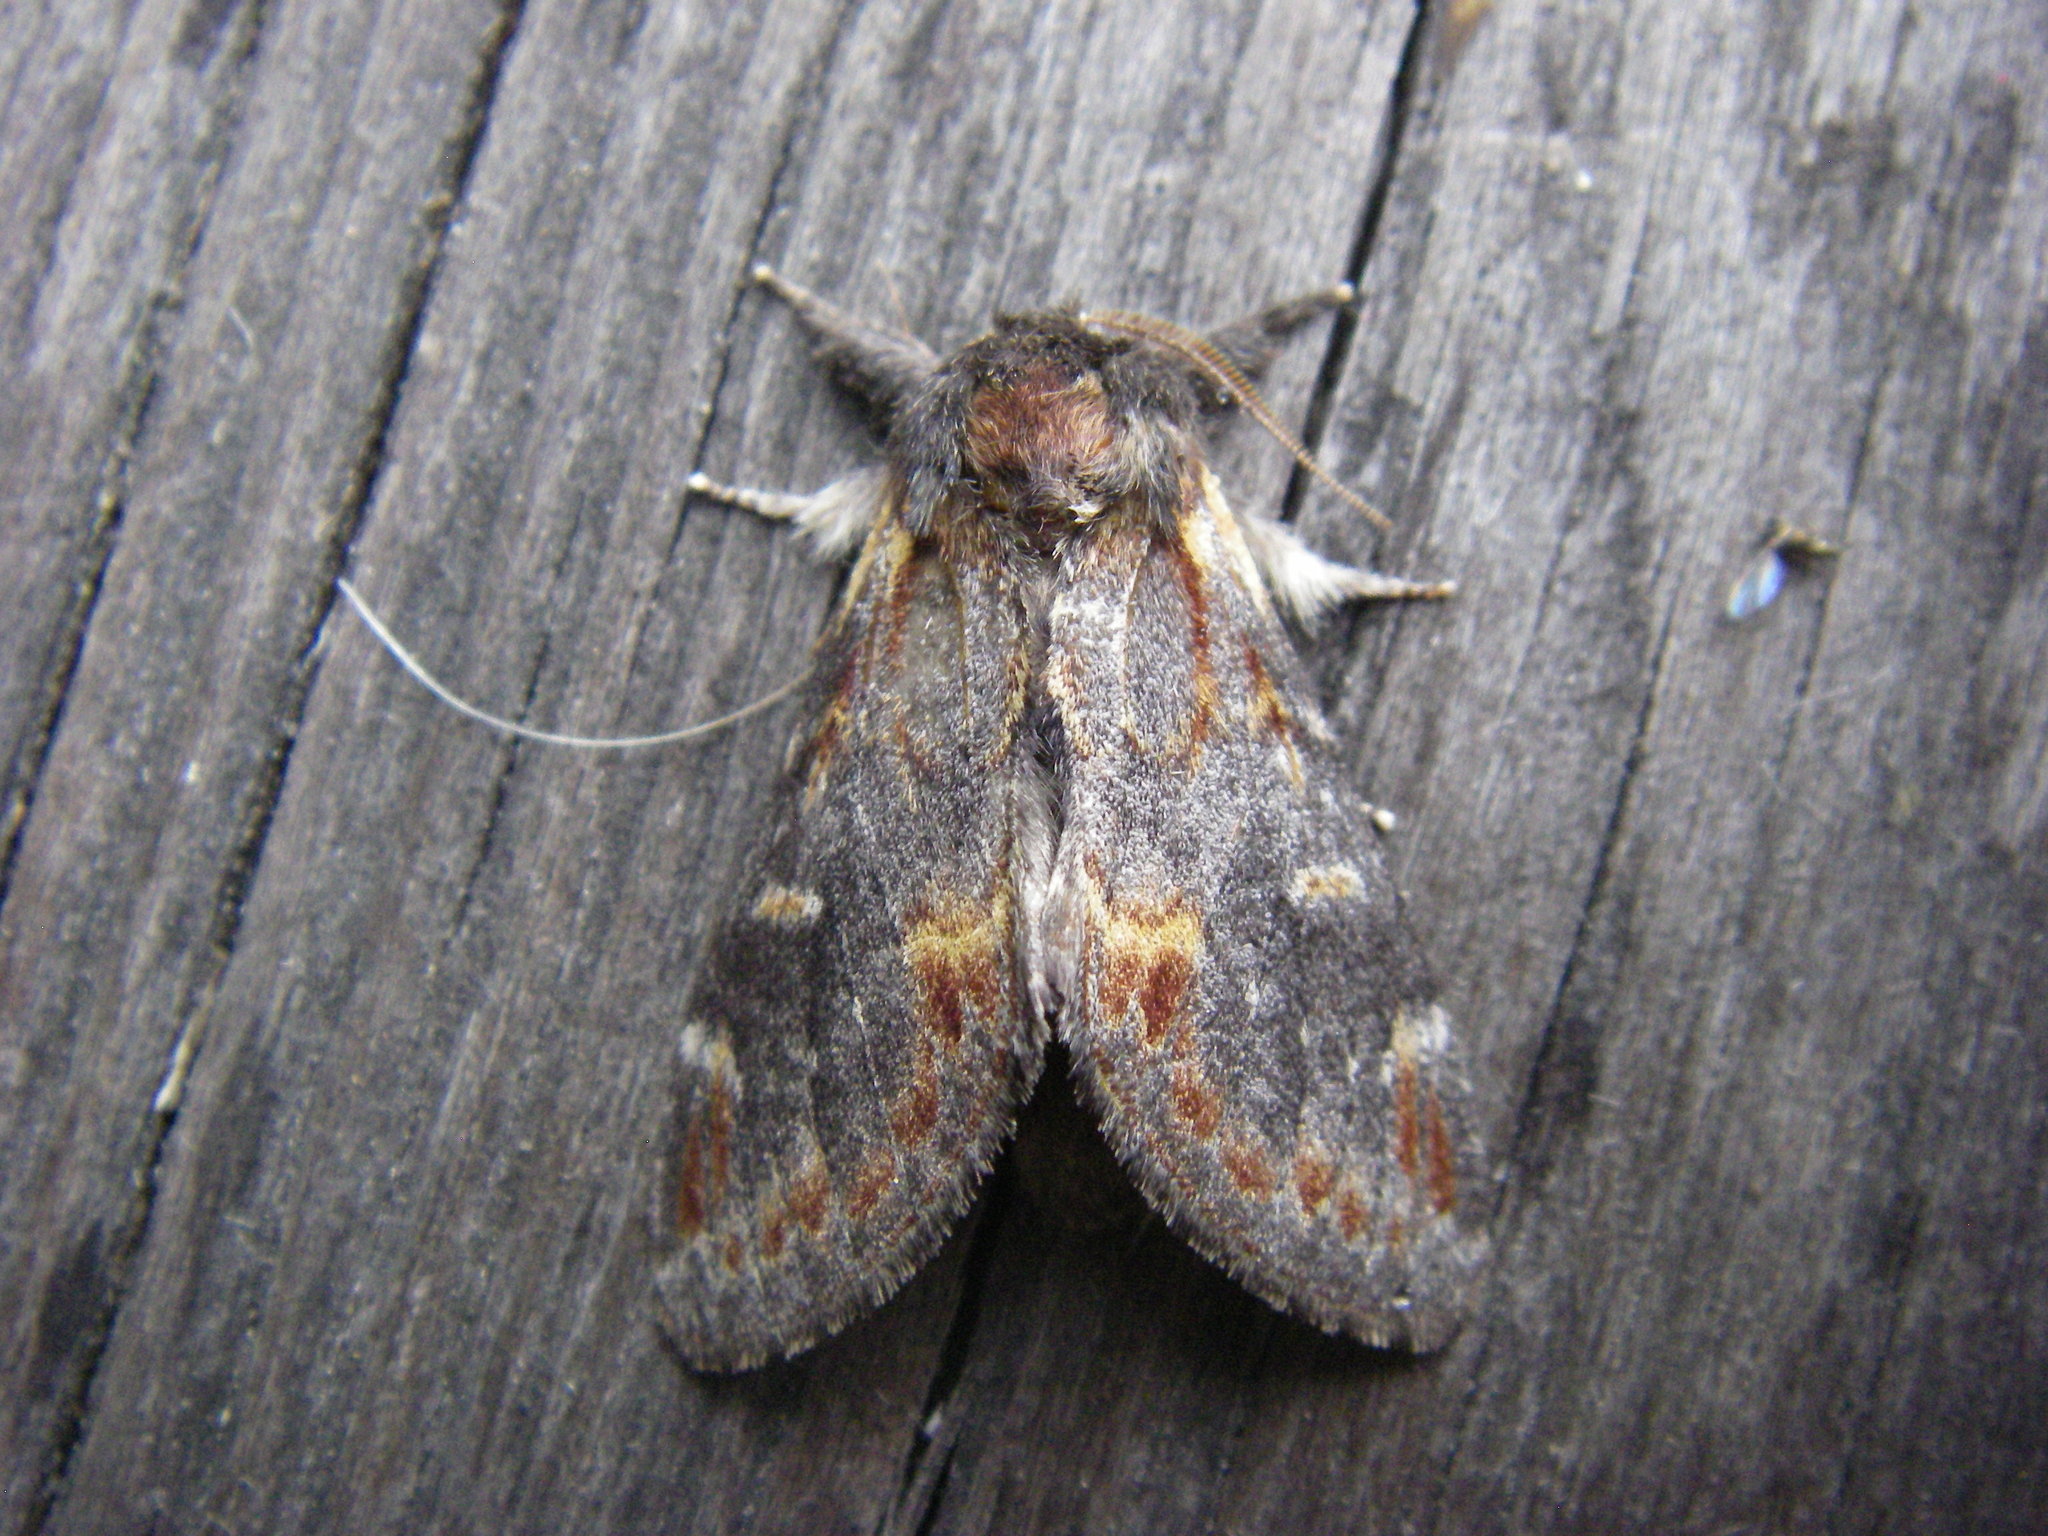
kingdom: Animalia
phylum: Arthropoda
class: Insecta
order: Lepidoptera
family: Notodontidae
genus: Notodonta
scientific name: Notodonta dromedarius
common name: Iron prominent
